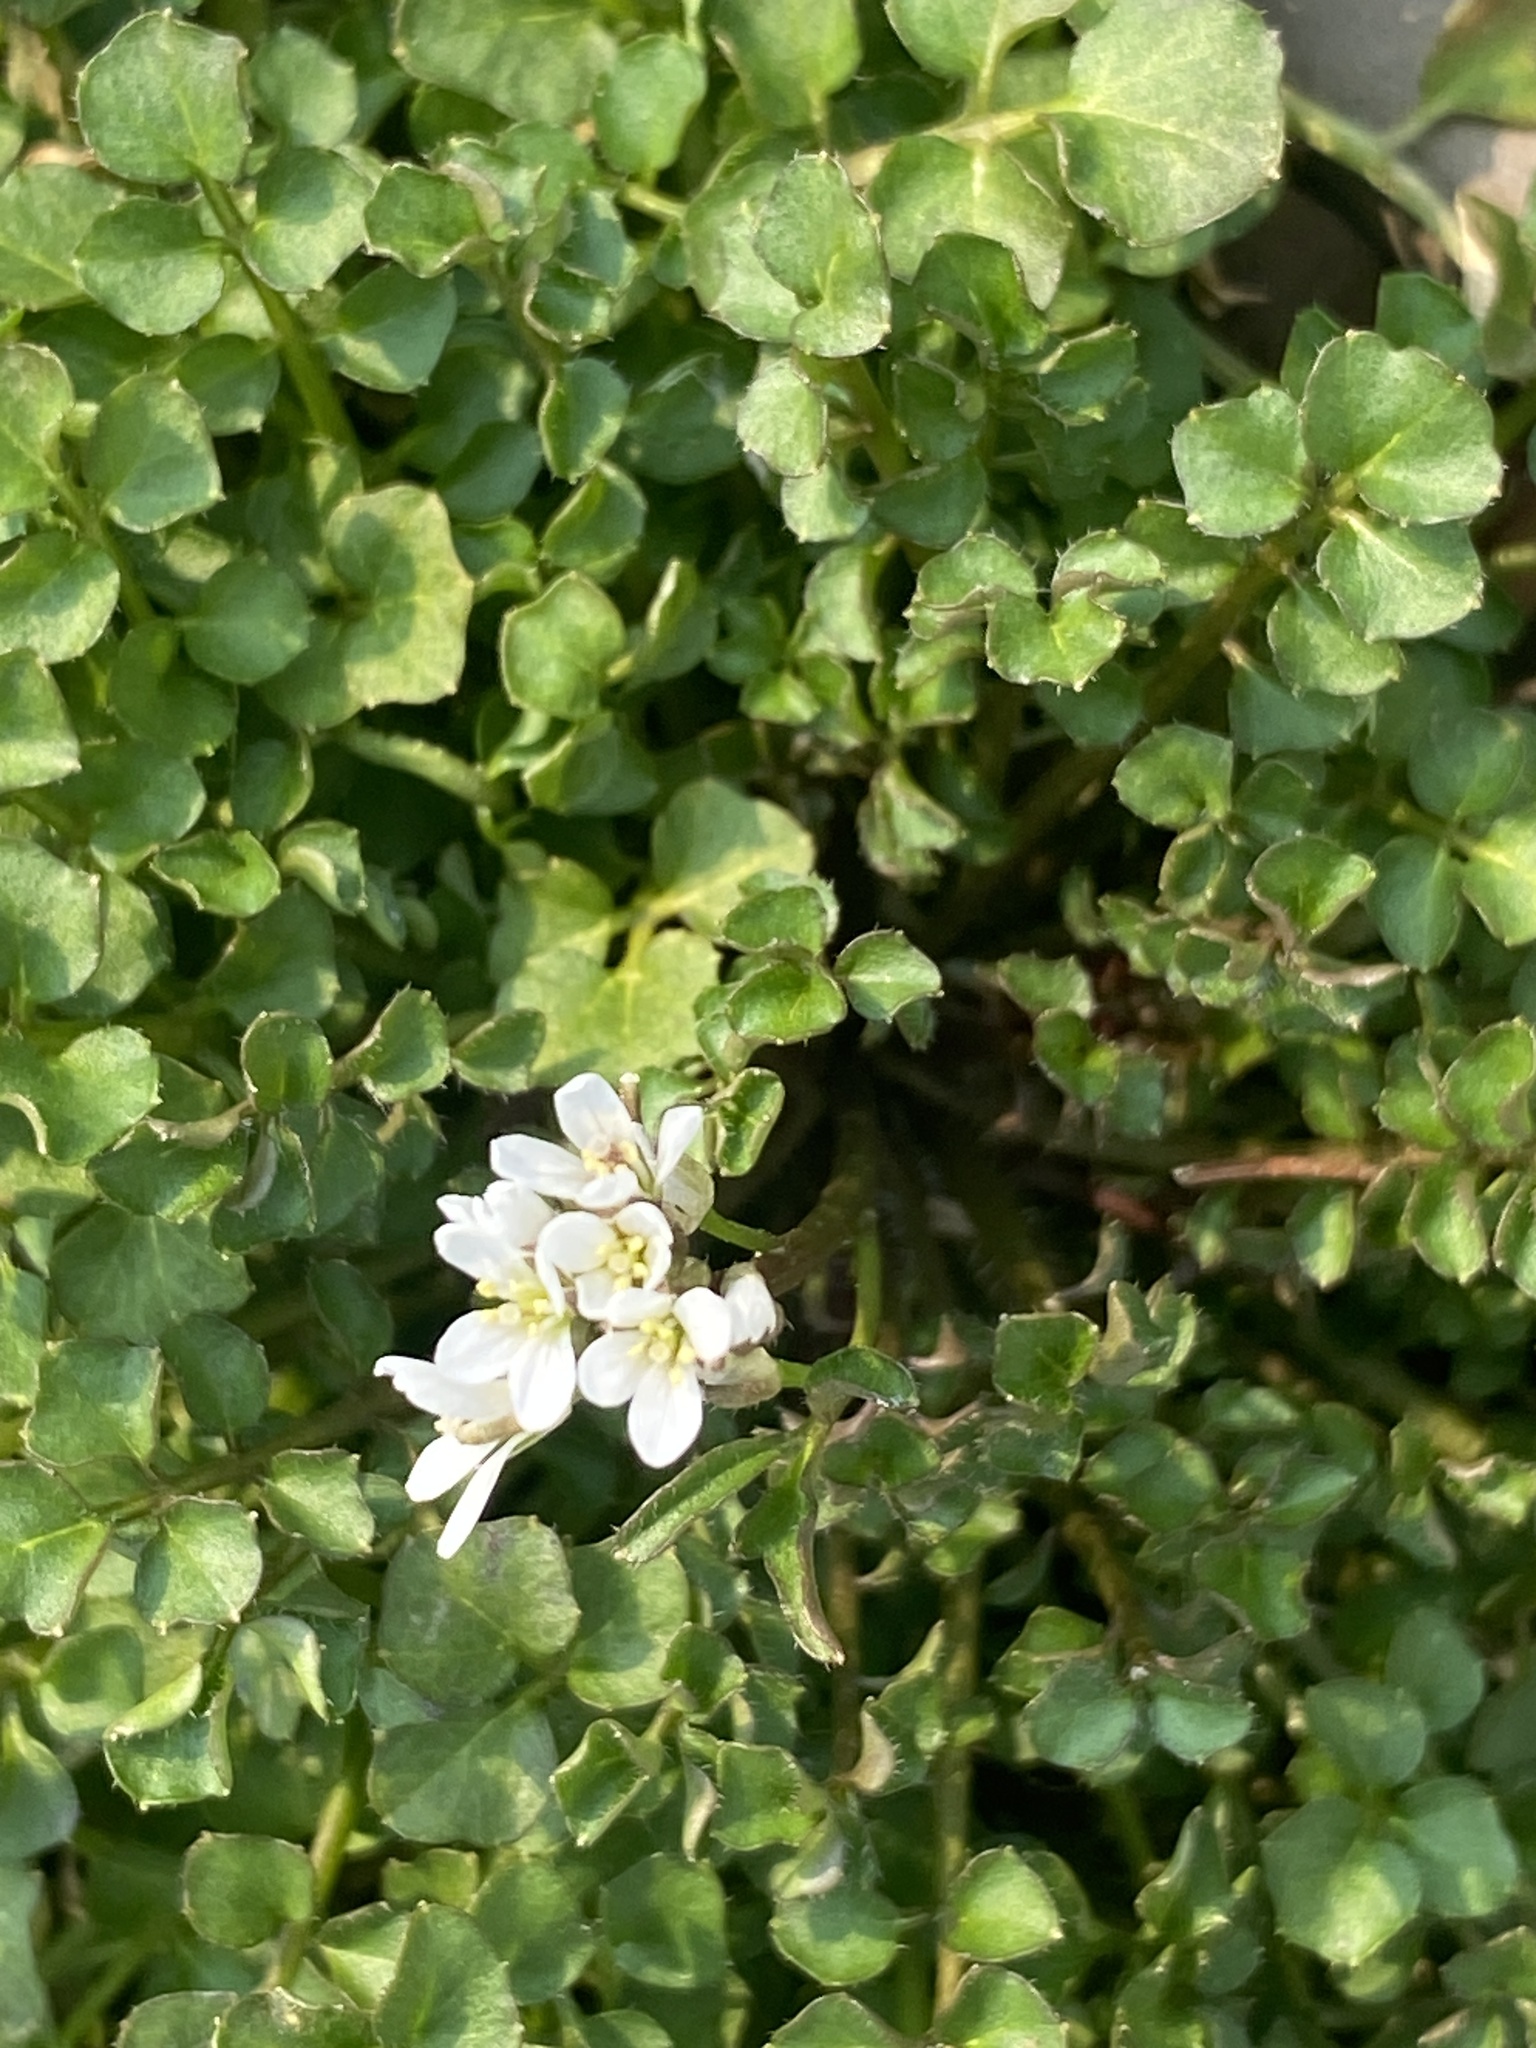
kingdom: Plantae
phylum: Tracheophyta
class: Magnoliopsida
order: Brassicales
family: Brassicaceae
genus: Cardamine
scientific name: Cardamine hirsuta
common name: Hairy bittercress
